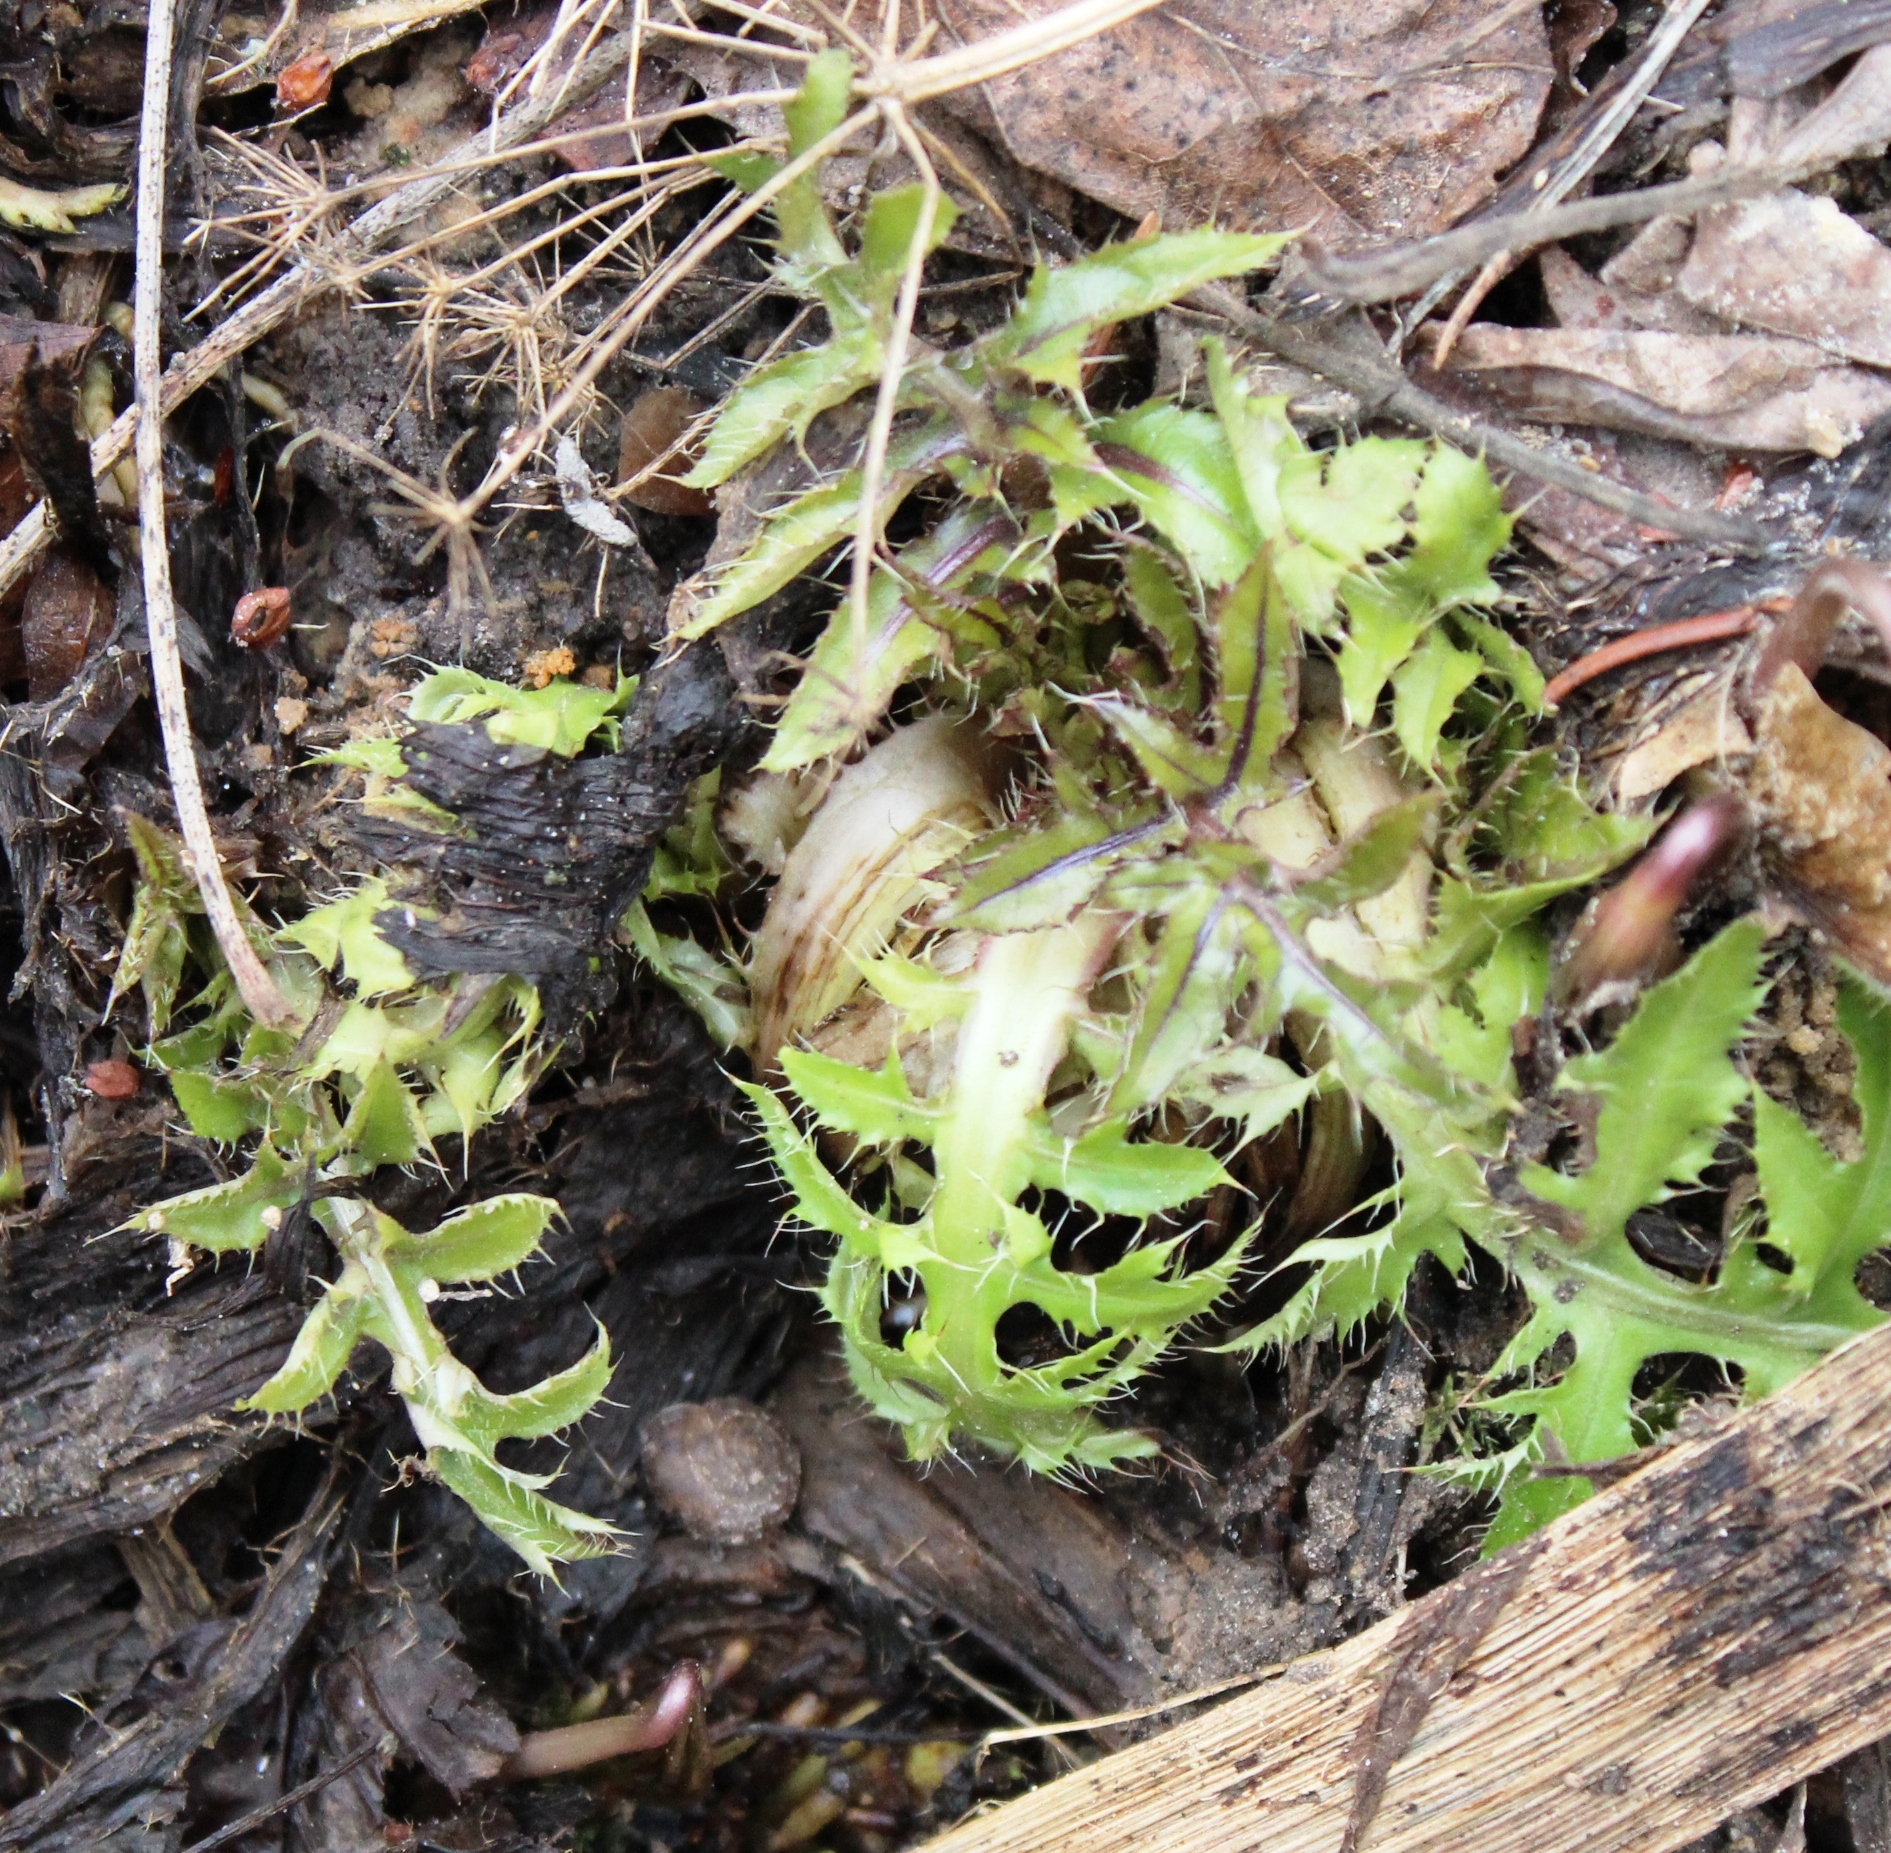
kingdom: Plantae
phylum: Tracheophyta
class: Magnoliopsida
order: Asterales
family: Asteraceae
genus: Cirsium
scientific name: Cirsium oleraceum
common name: Cabbage thistle
